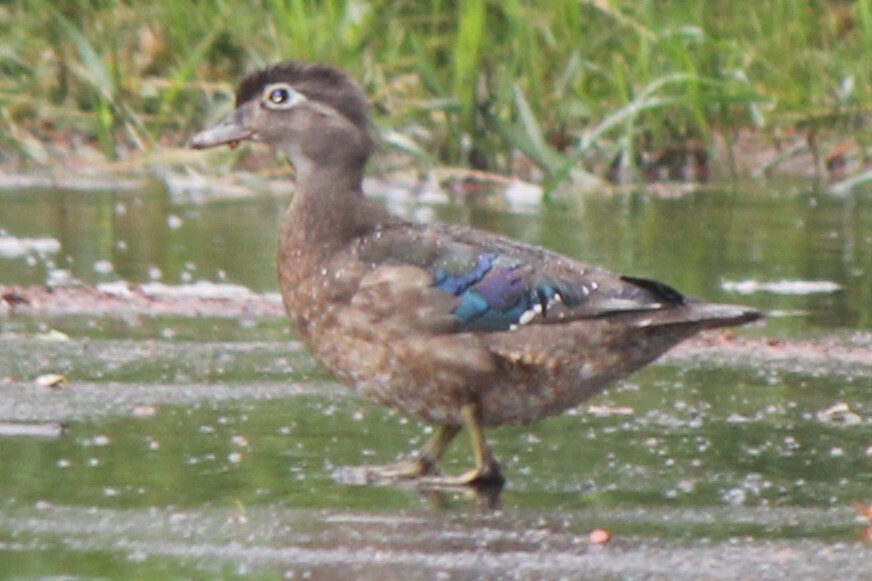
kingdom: Animalia
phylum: Chordata
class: Aves
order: Anseriformes
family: Anatidae
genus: Aix
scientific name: Aix sponsa
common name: Wood duck
